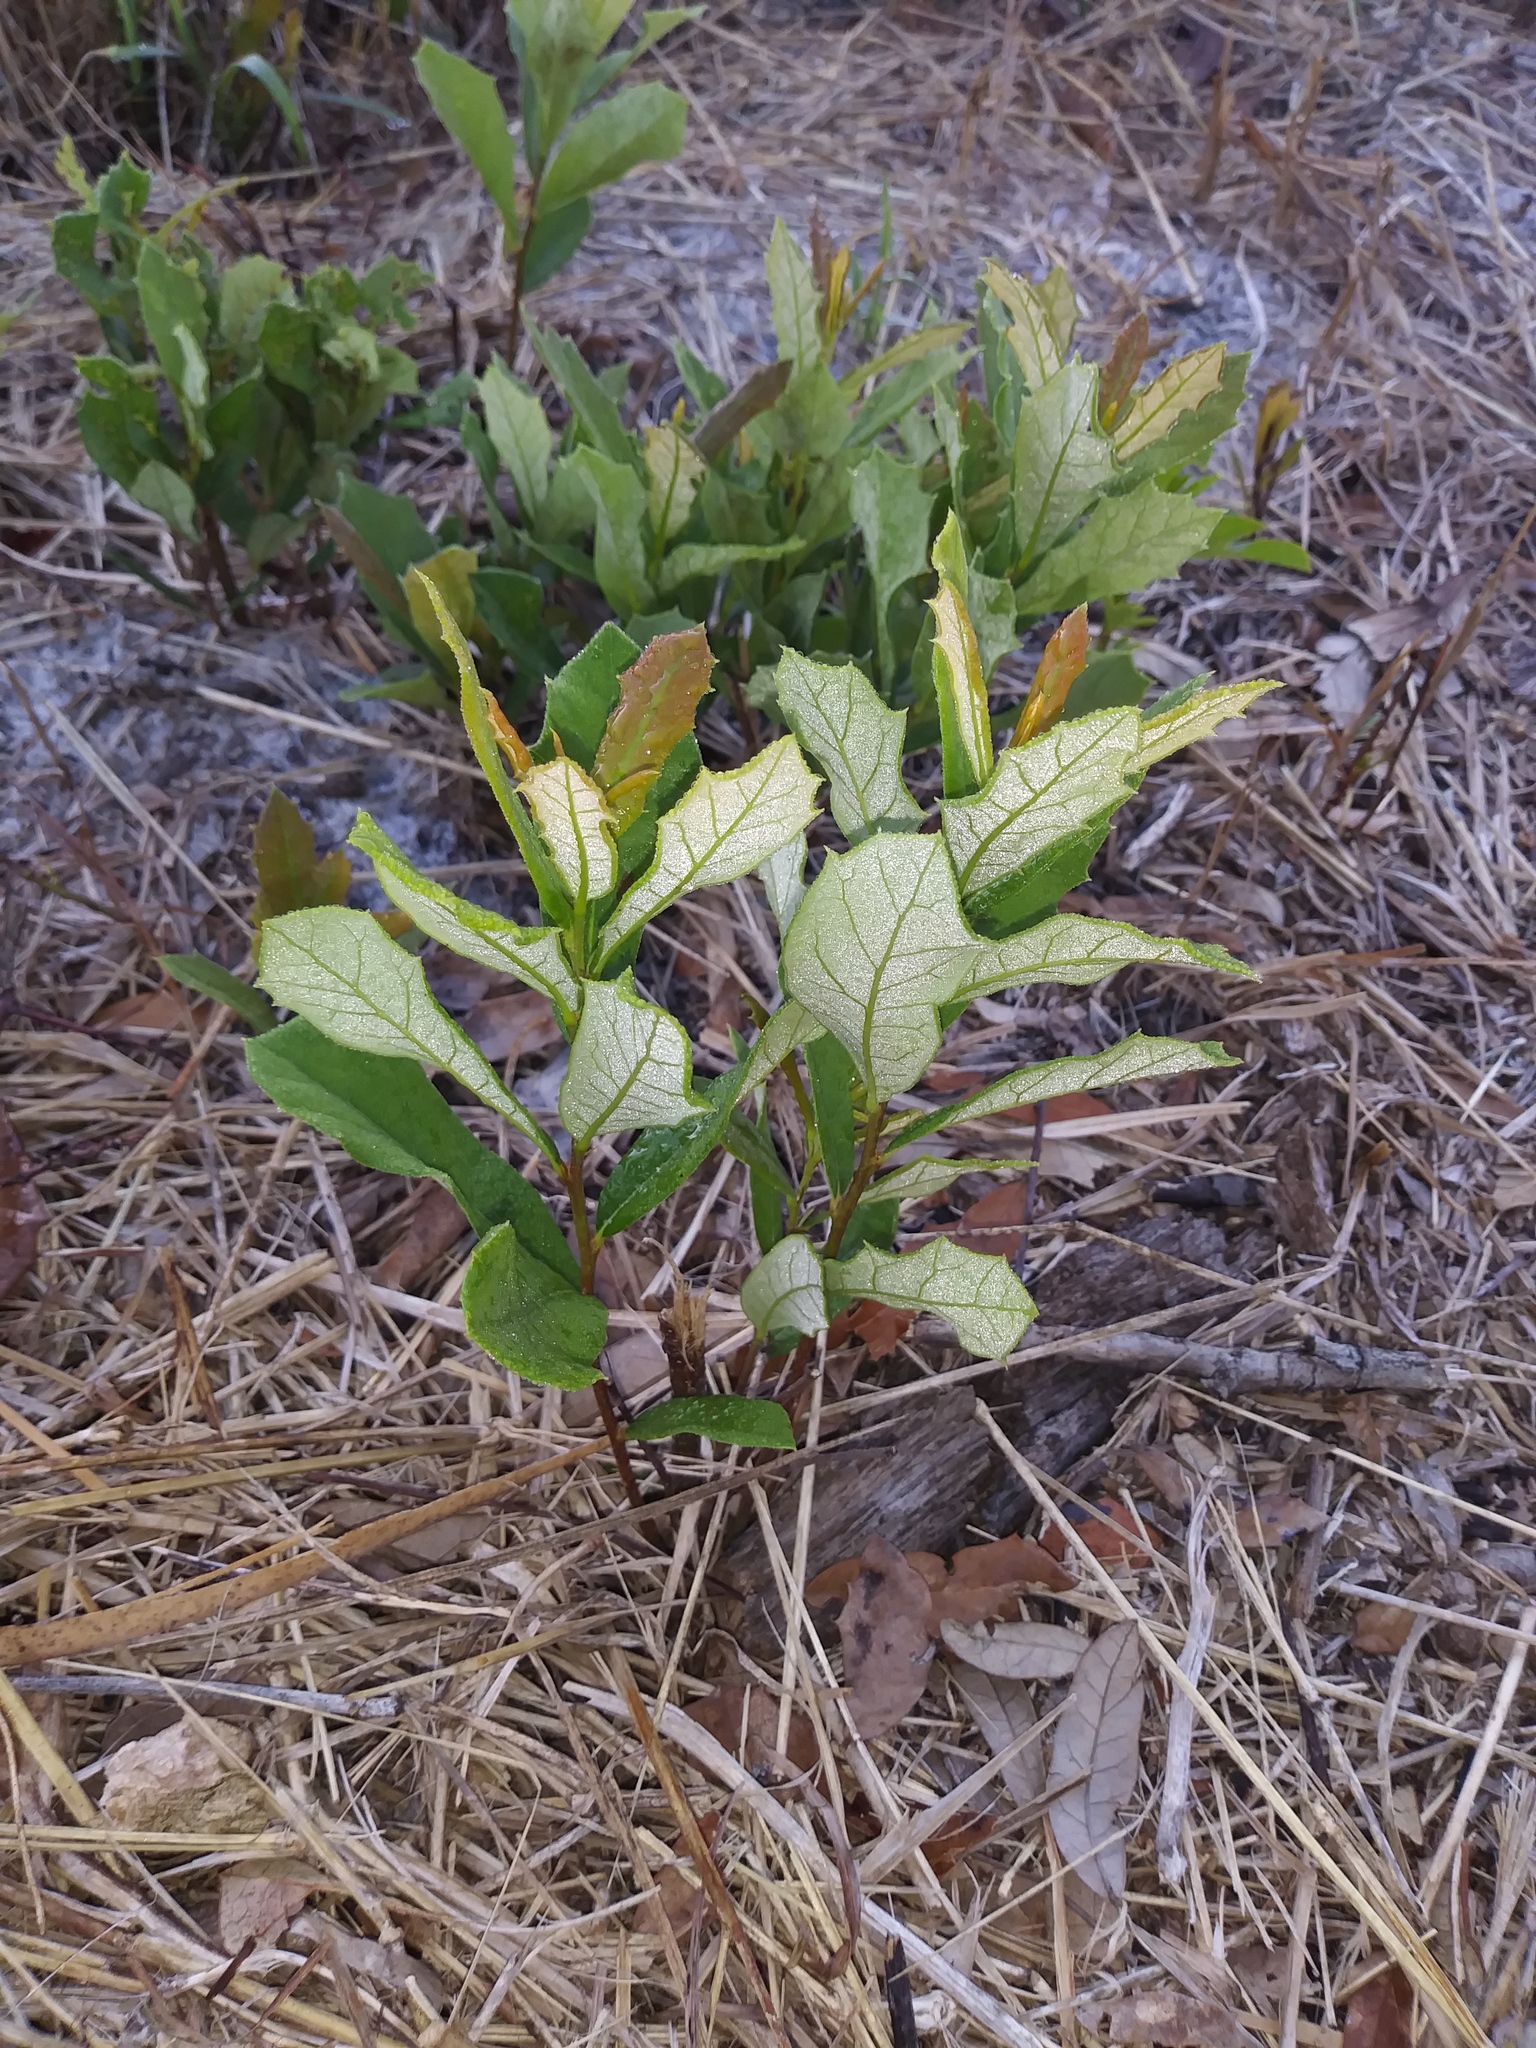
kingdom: Plantae
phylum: Tracheophyta
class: Magnoliopsida
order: Fagales
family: Fagaceae
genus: Quercus
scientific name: Quercus minima
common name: Dwarf live oak
